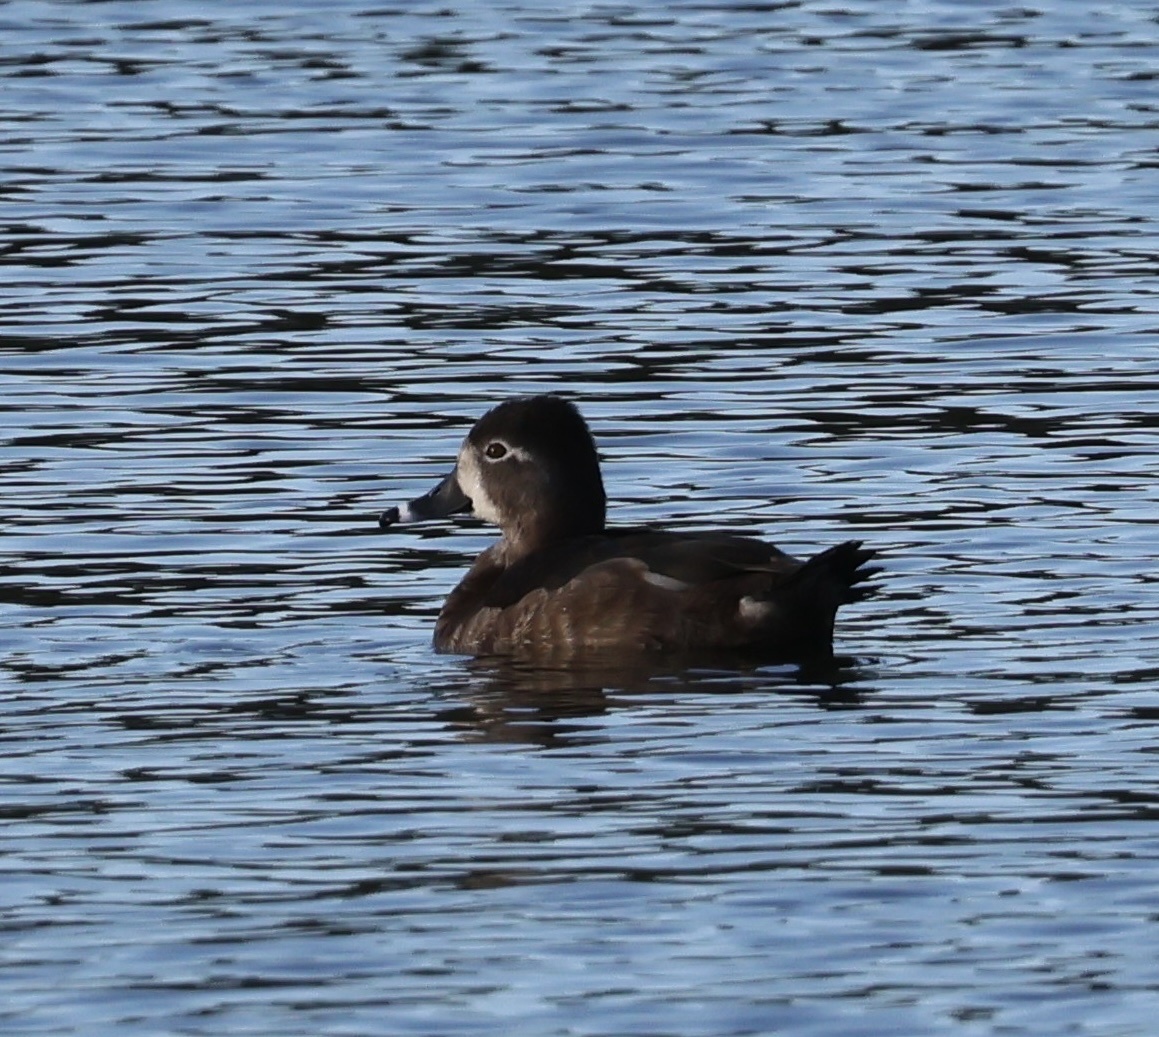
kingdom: Animalia
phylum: Chordata
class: Aves
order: Anseriformes
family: Anatidae
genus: Aythya
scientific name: Aythya collaris
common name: Ring-necked duck
